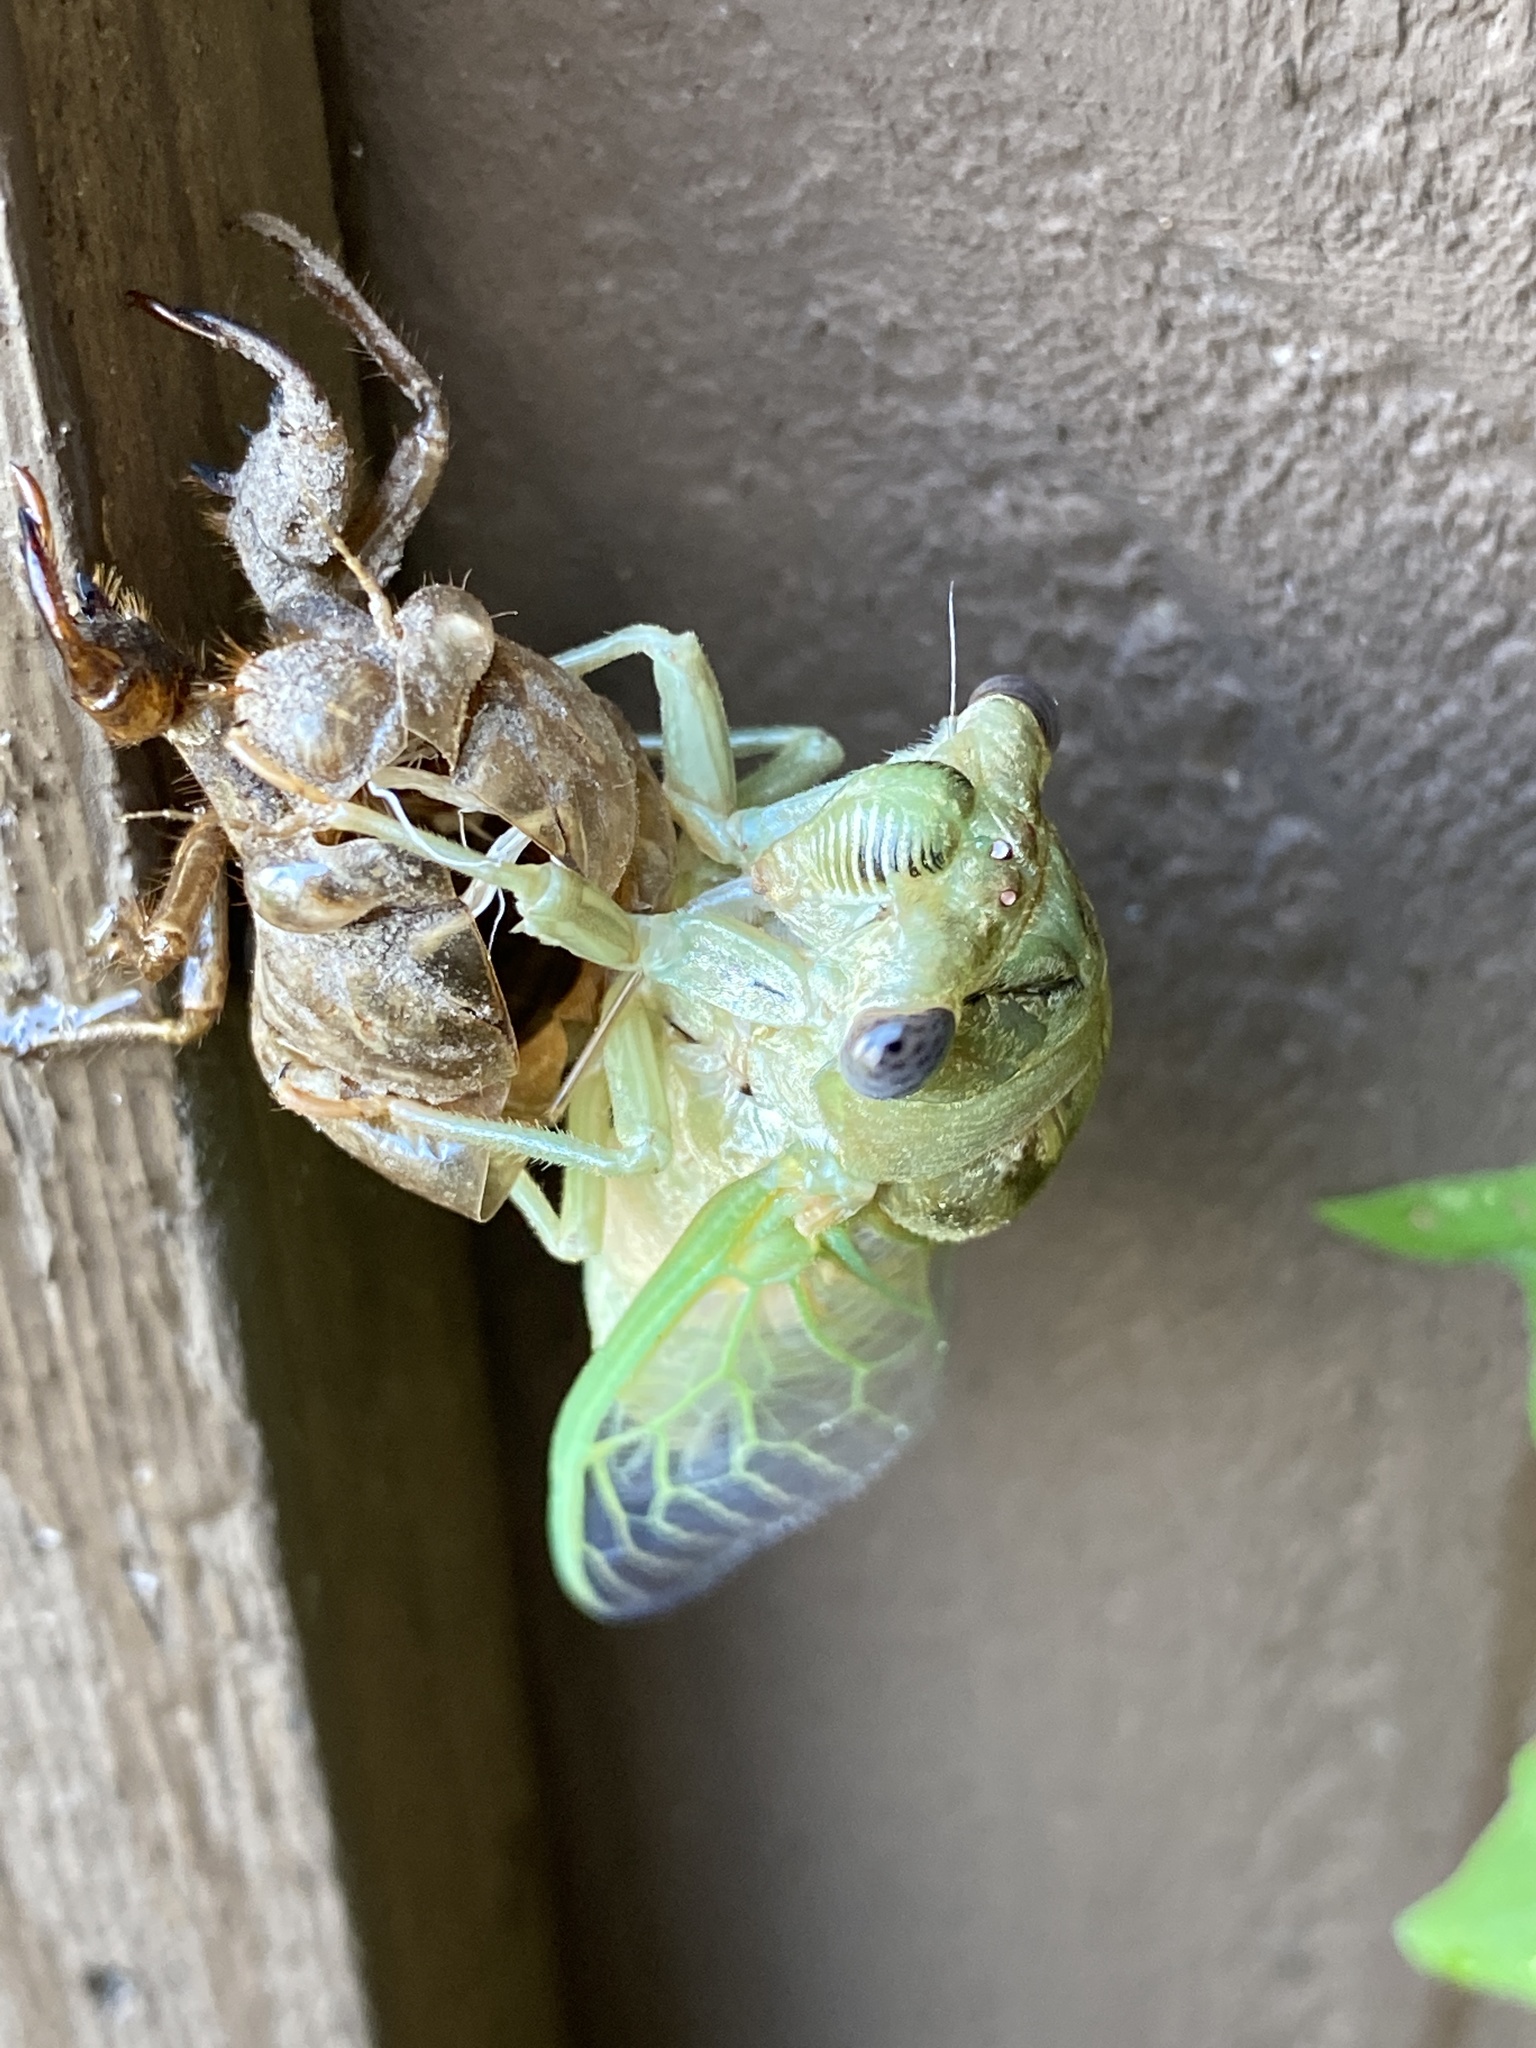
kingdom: Animalia
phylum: Arthropoda
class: Insecta
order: Hemiptera
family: Cicadidae
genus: Megatibicen
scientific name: Megatibicen resh
